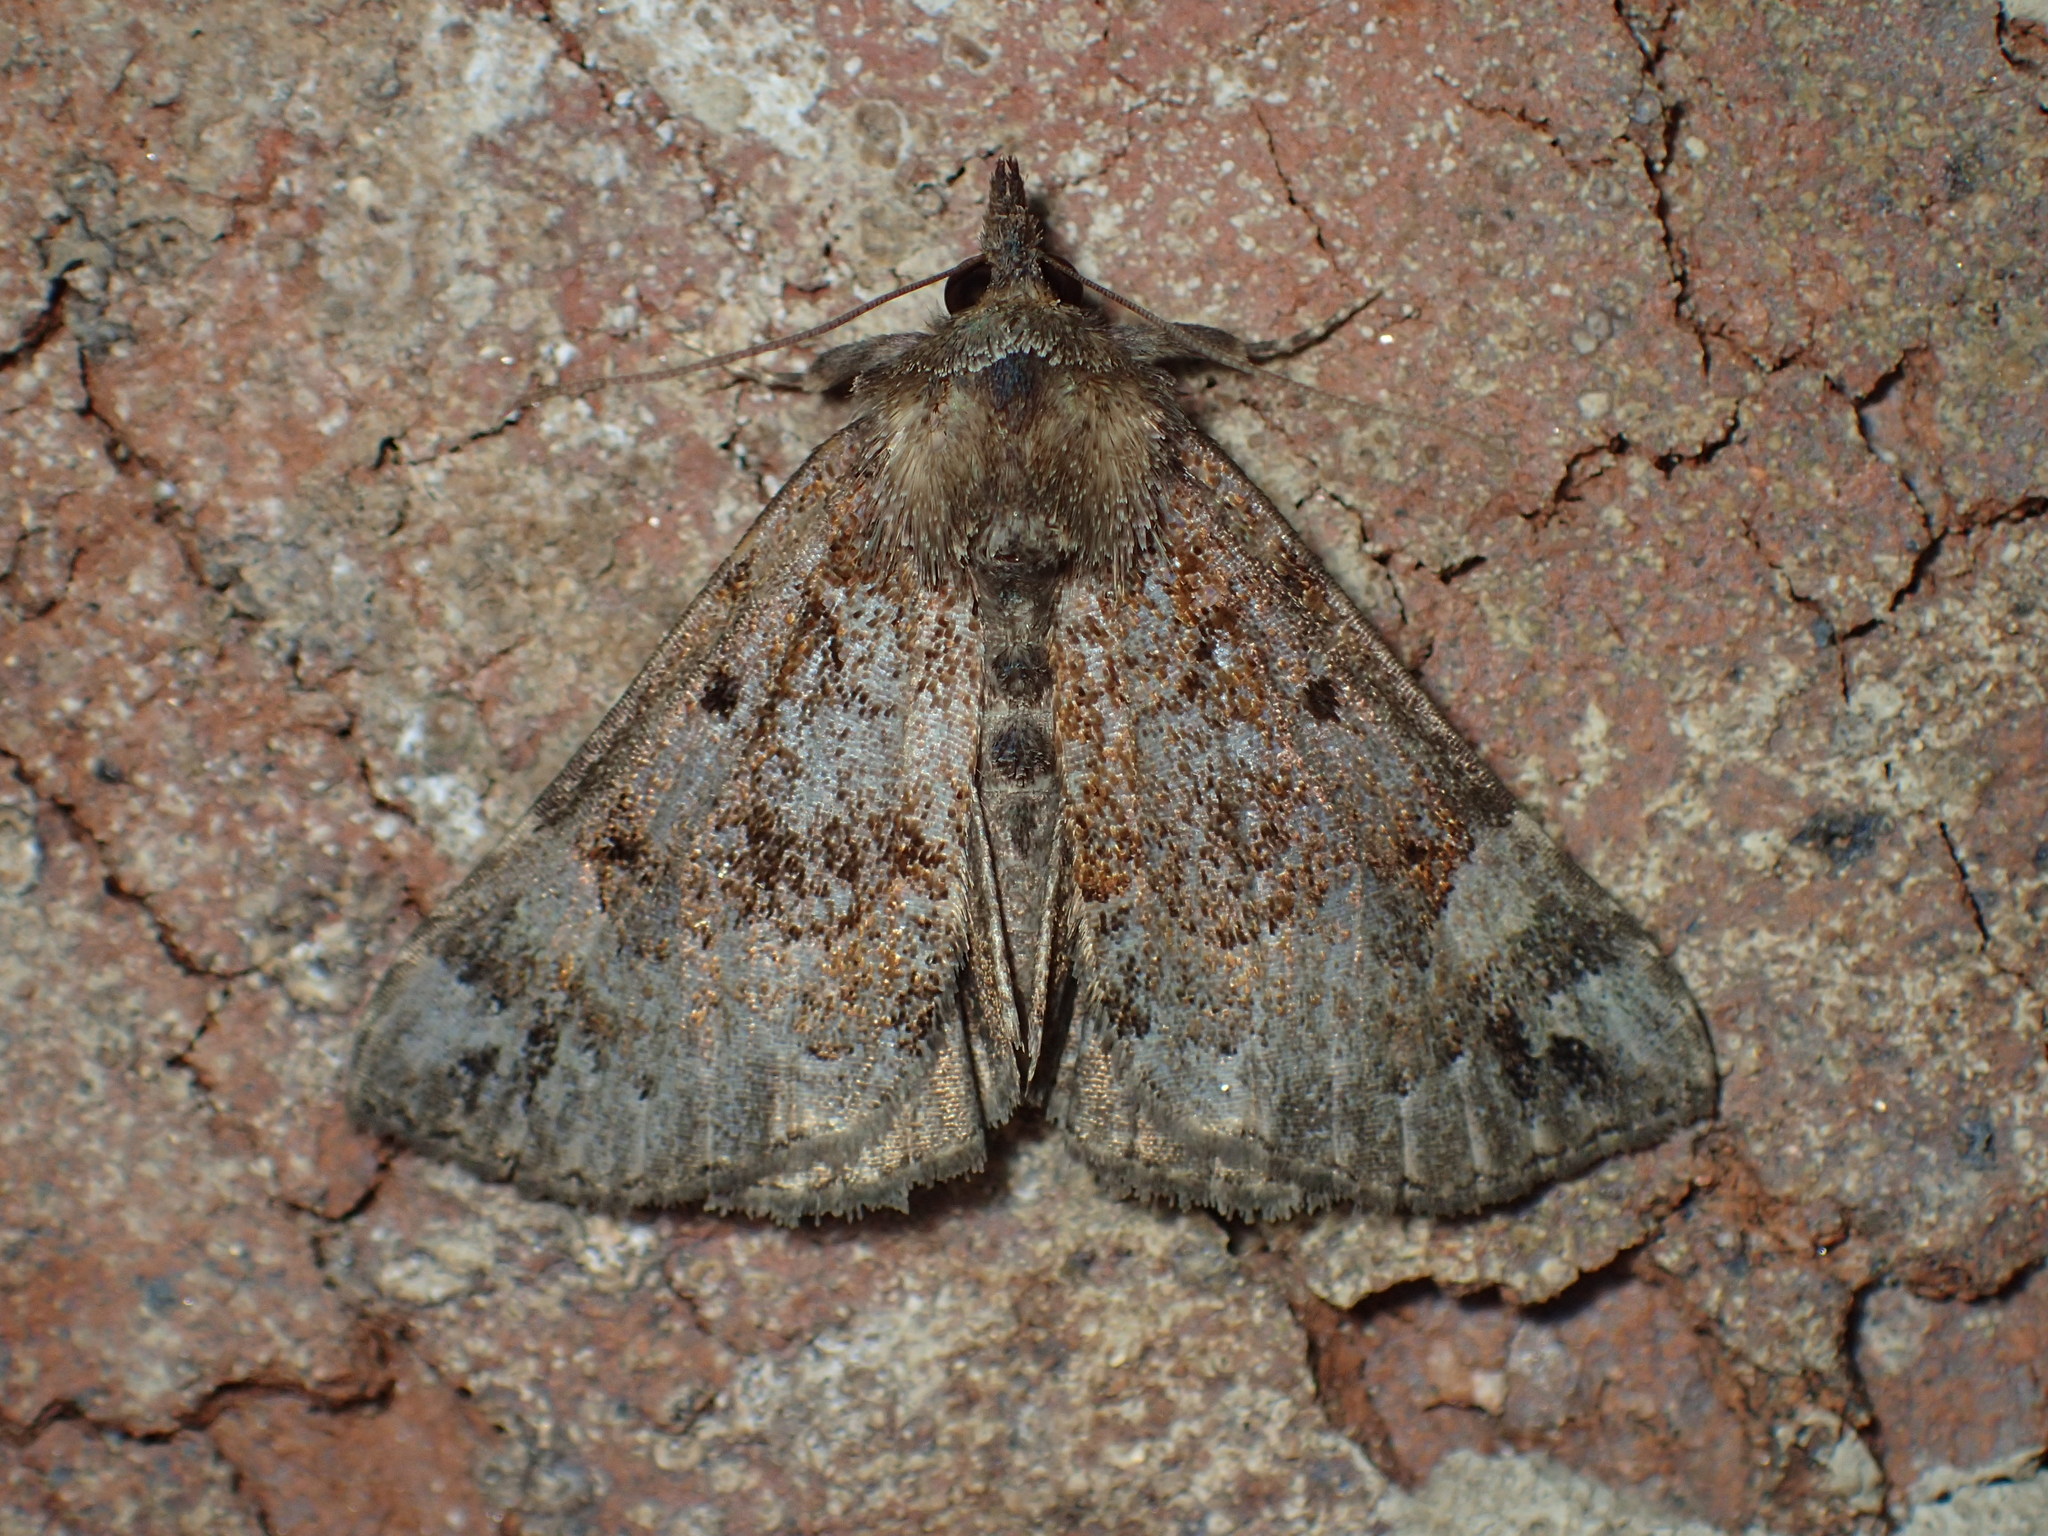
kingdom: Animalia
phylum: Arthropoda
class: Insecta
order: Lepidoptera
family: Erebidae
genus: Hypena
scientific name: Hypena palparia
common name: Mottled bomolocha moth
